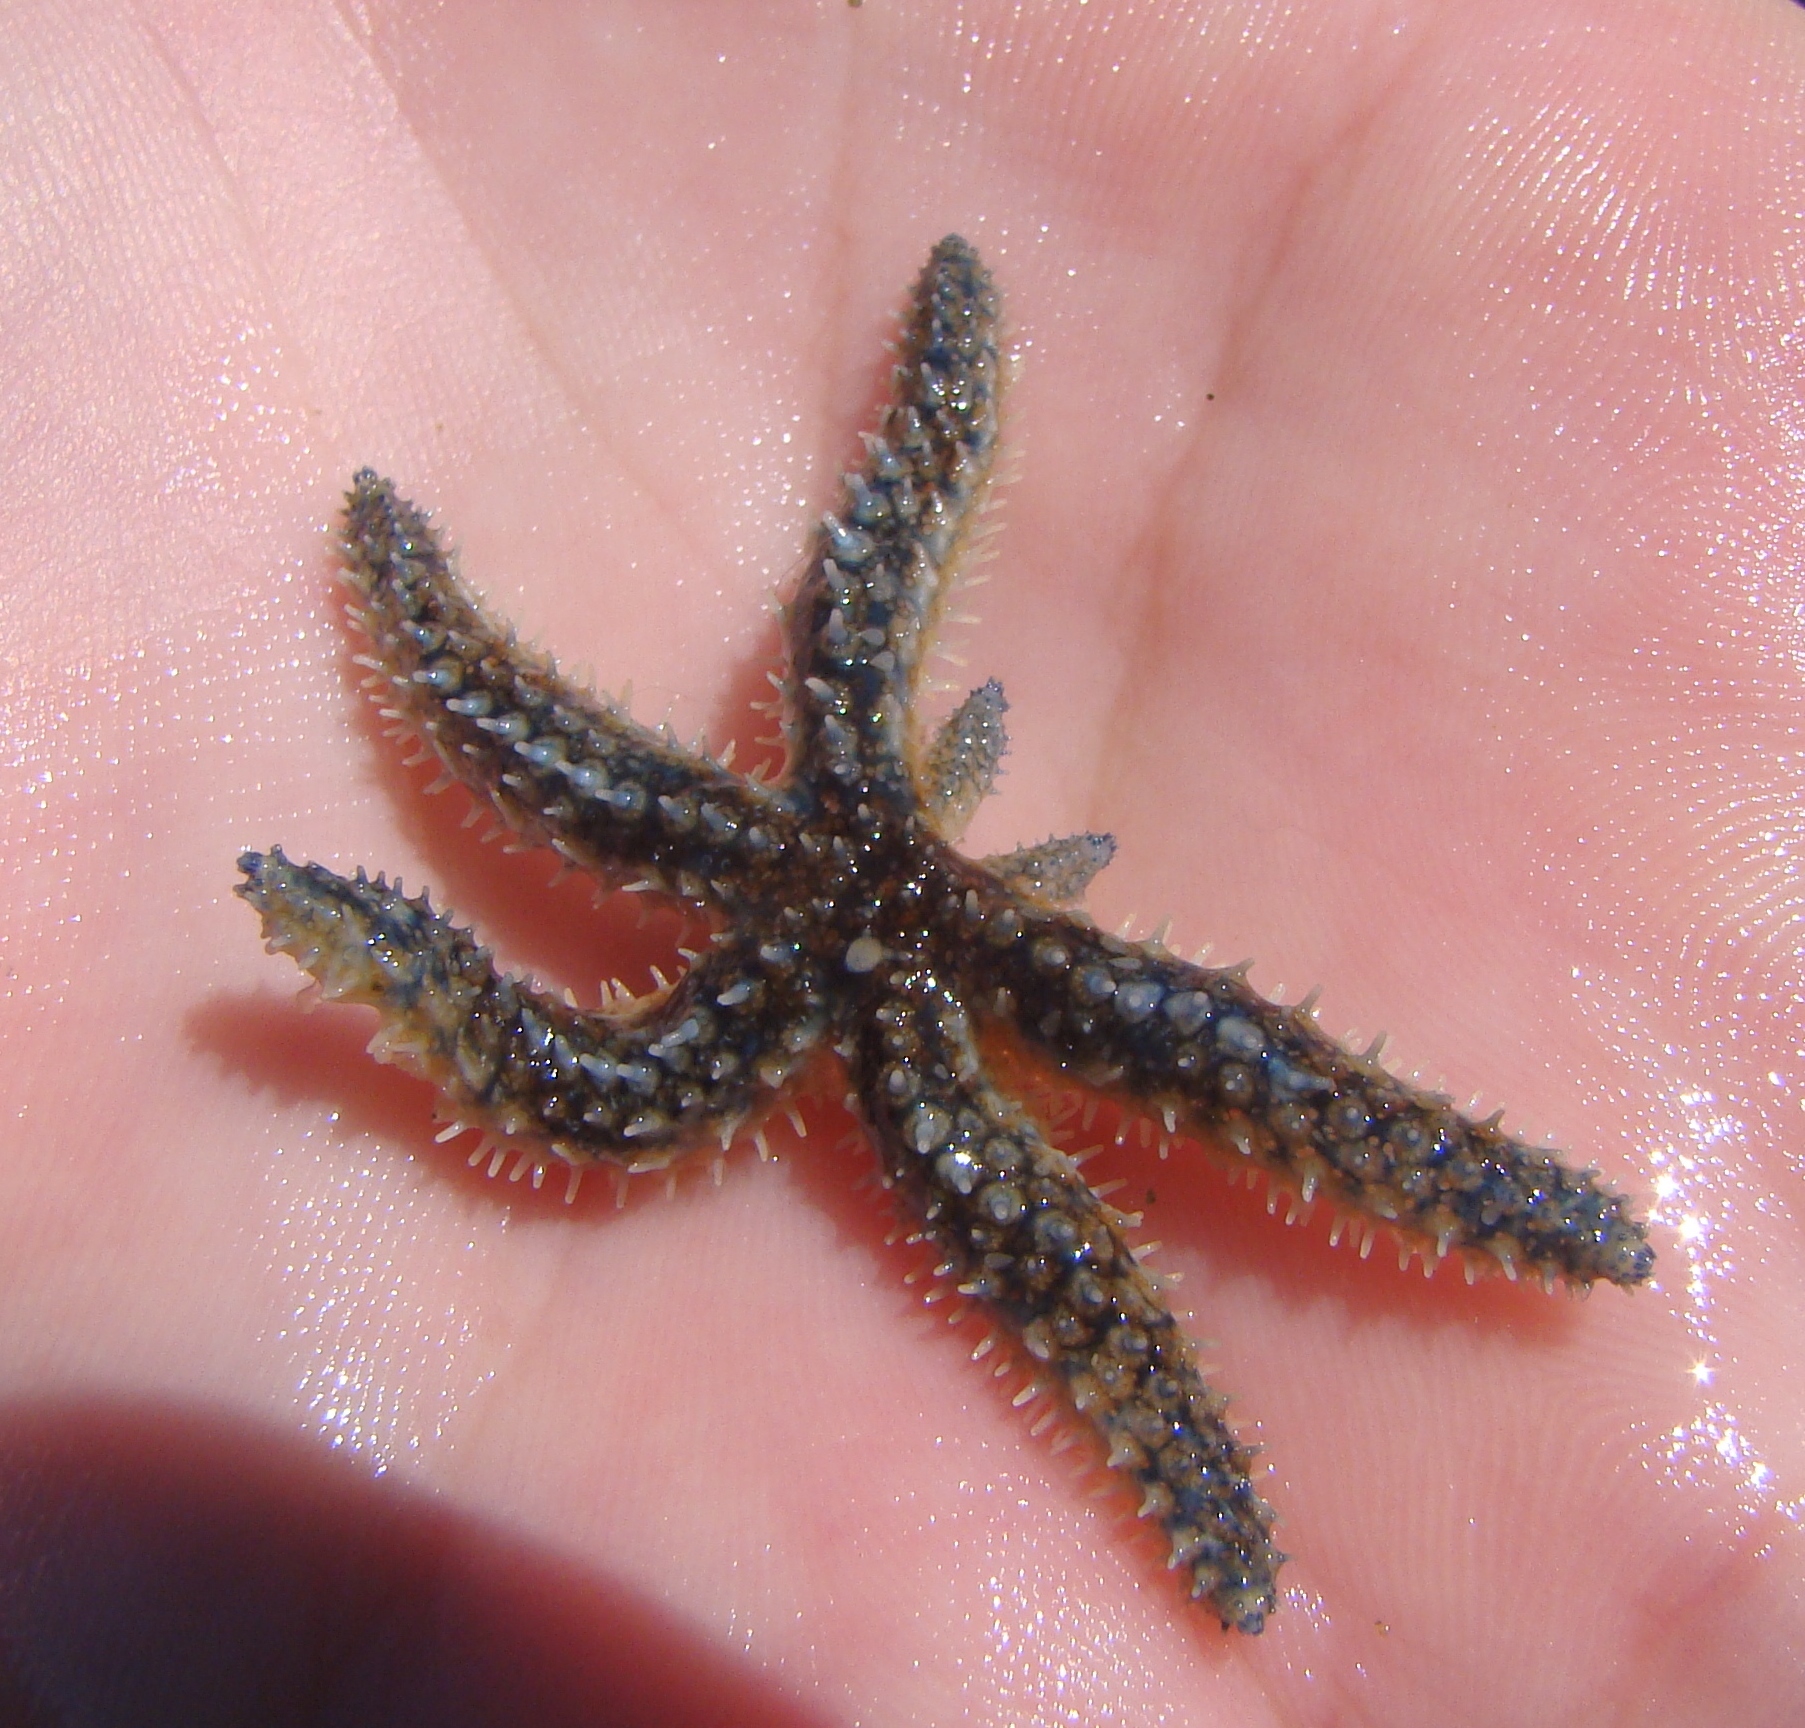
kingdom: Animalia
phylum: Echinodermata
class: Asteroidea
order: Forcipulatida
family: Asteriidae
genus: Coscinasterias
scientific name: Coscinasterias muricata
